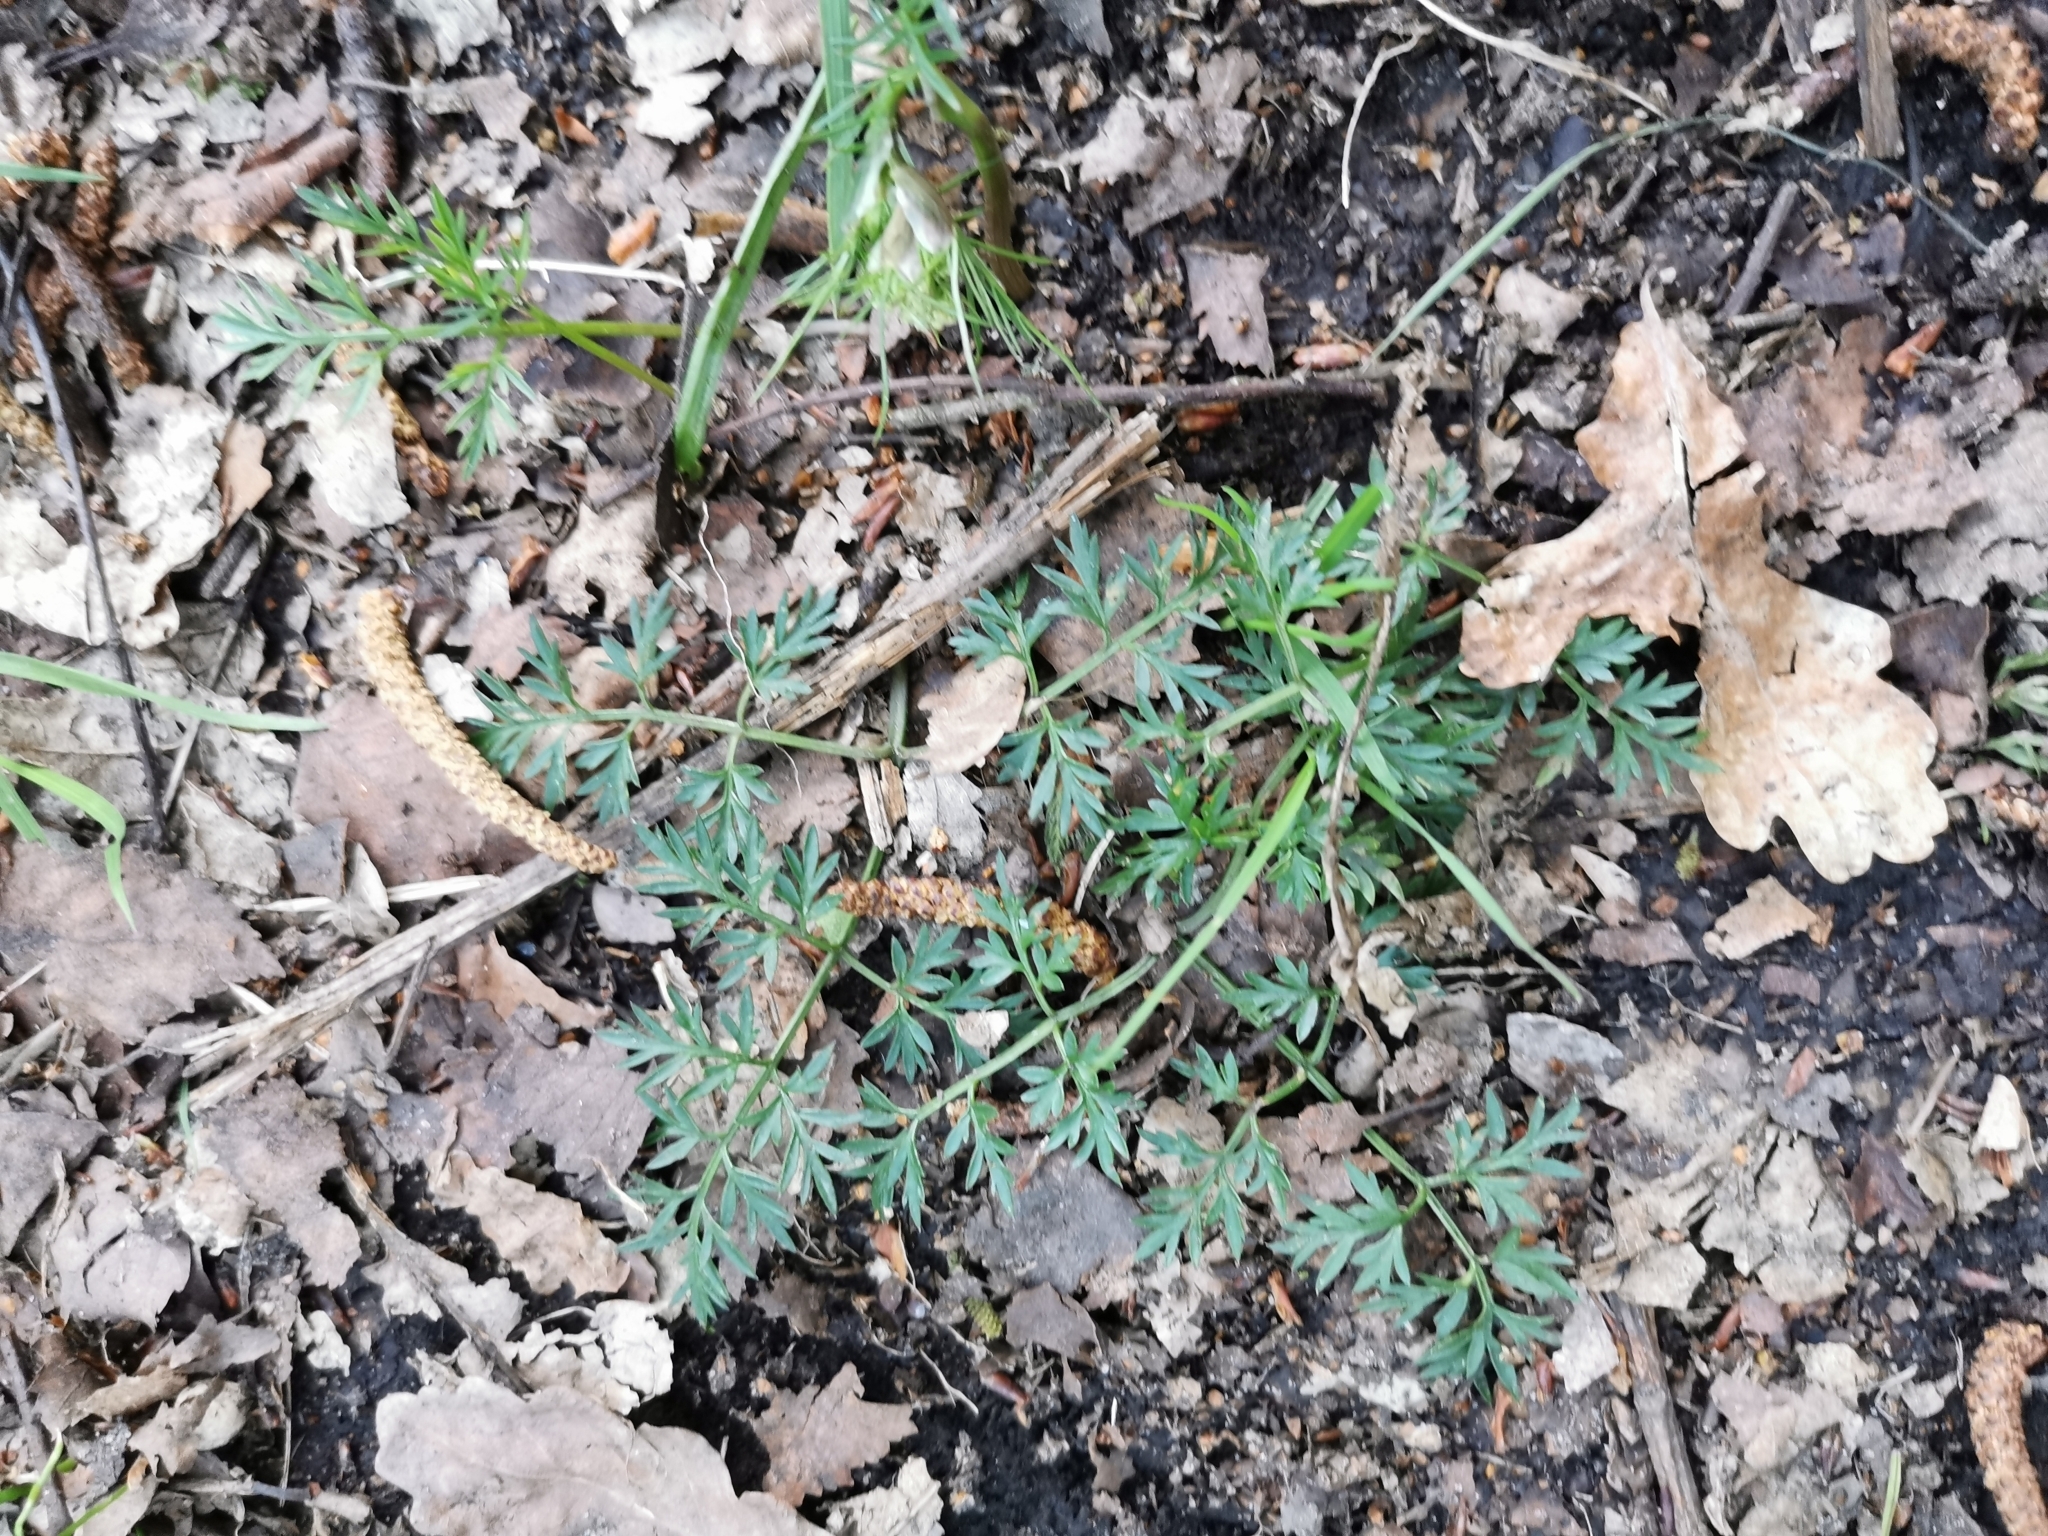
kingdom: Plantae
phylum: Tracheophyta
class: Magnoliopsida
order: Apiales
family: Apiaceae
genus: Conopodium
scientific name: Conopodium majus
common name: Pignut
